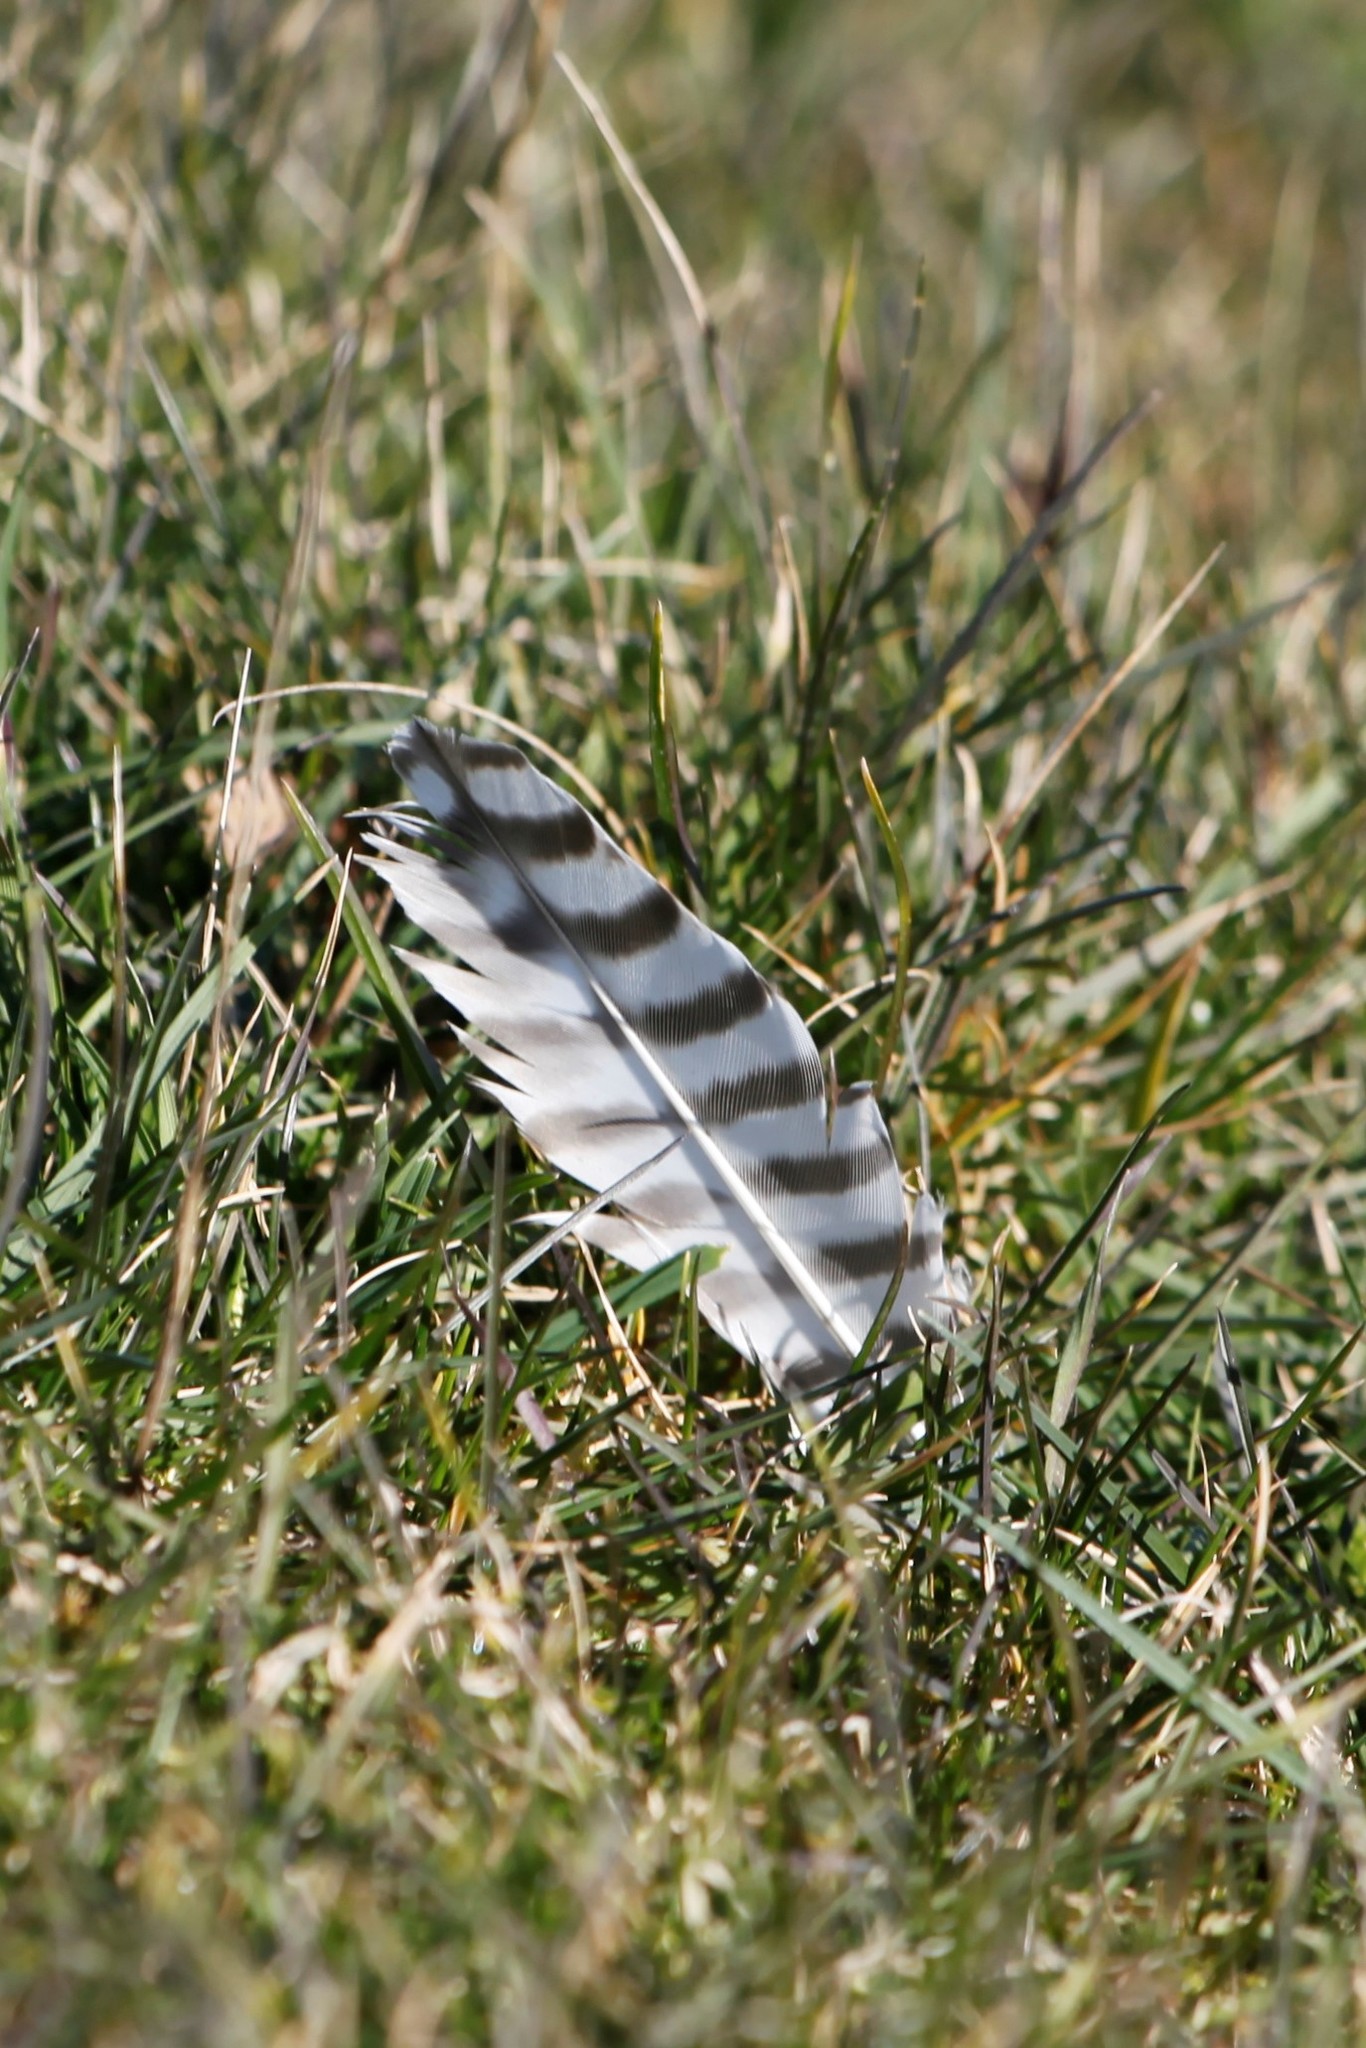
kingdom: Animalia
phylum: Chordata
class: Aves
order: Charadriiformes
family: Scolopacidae
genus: Numenius
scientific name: Numenius arquata
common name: Eurasian curlew
